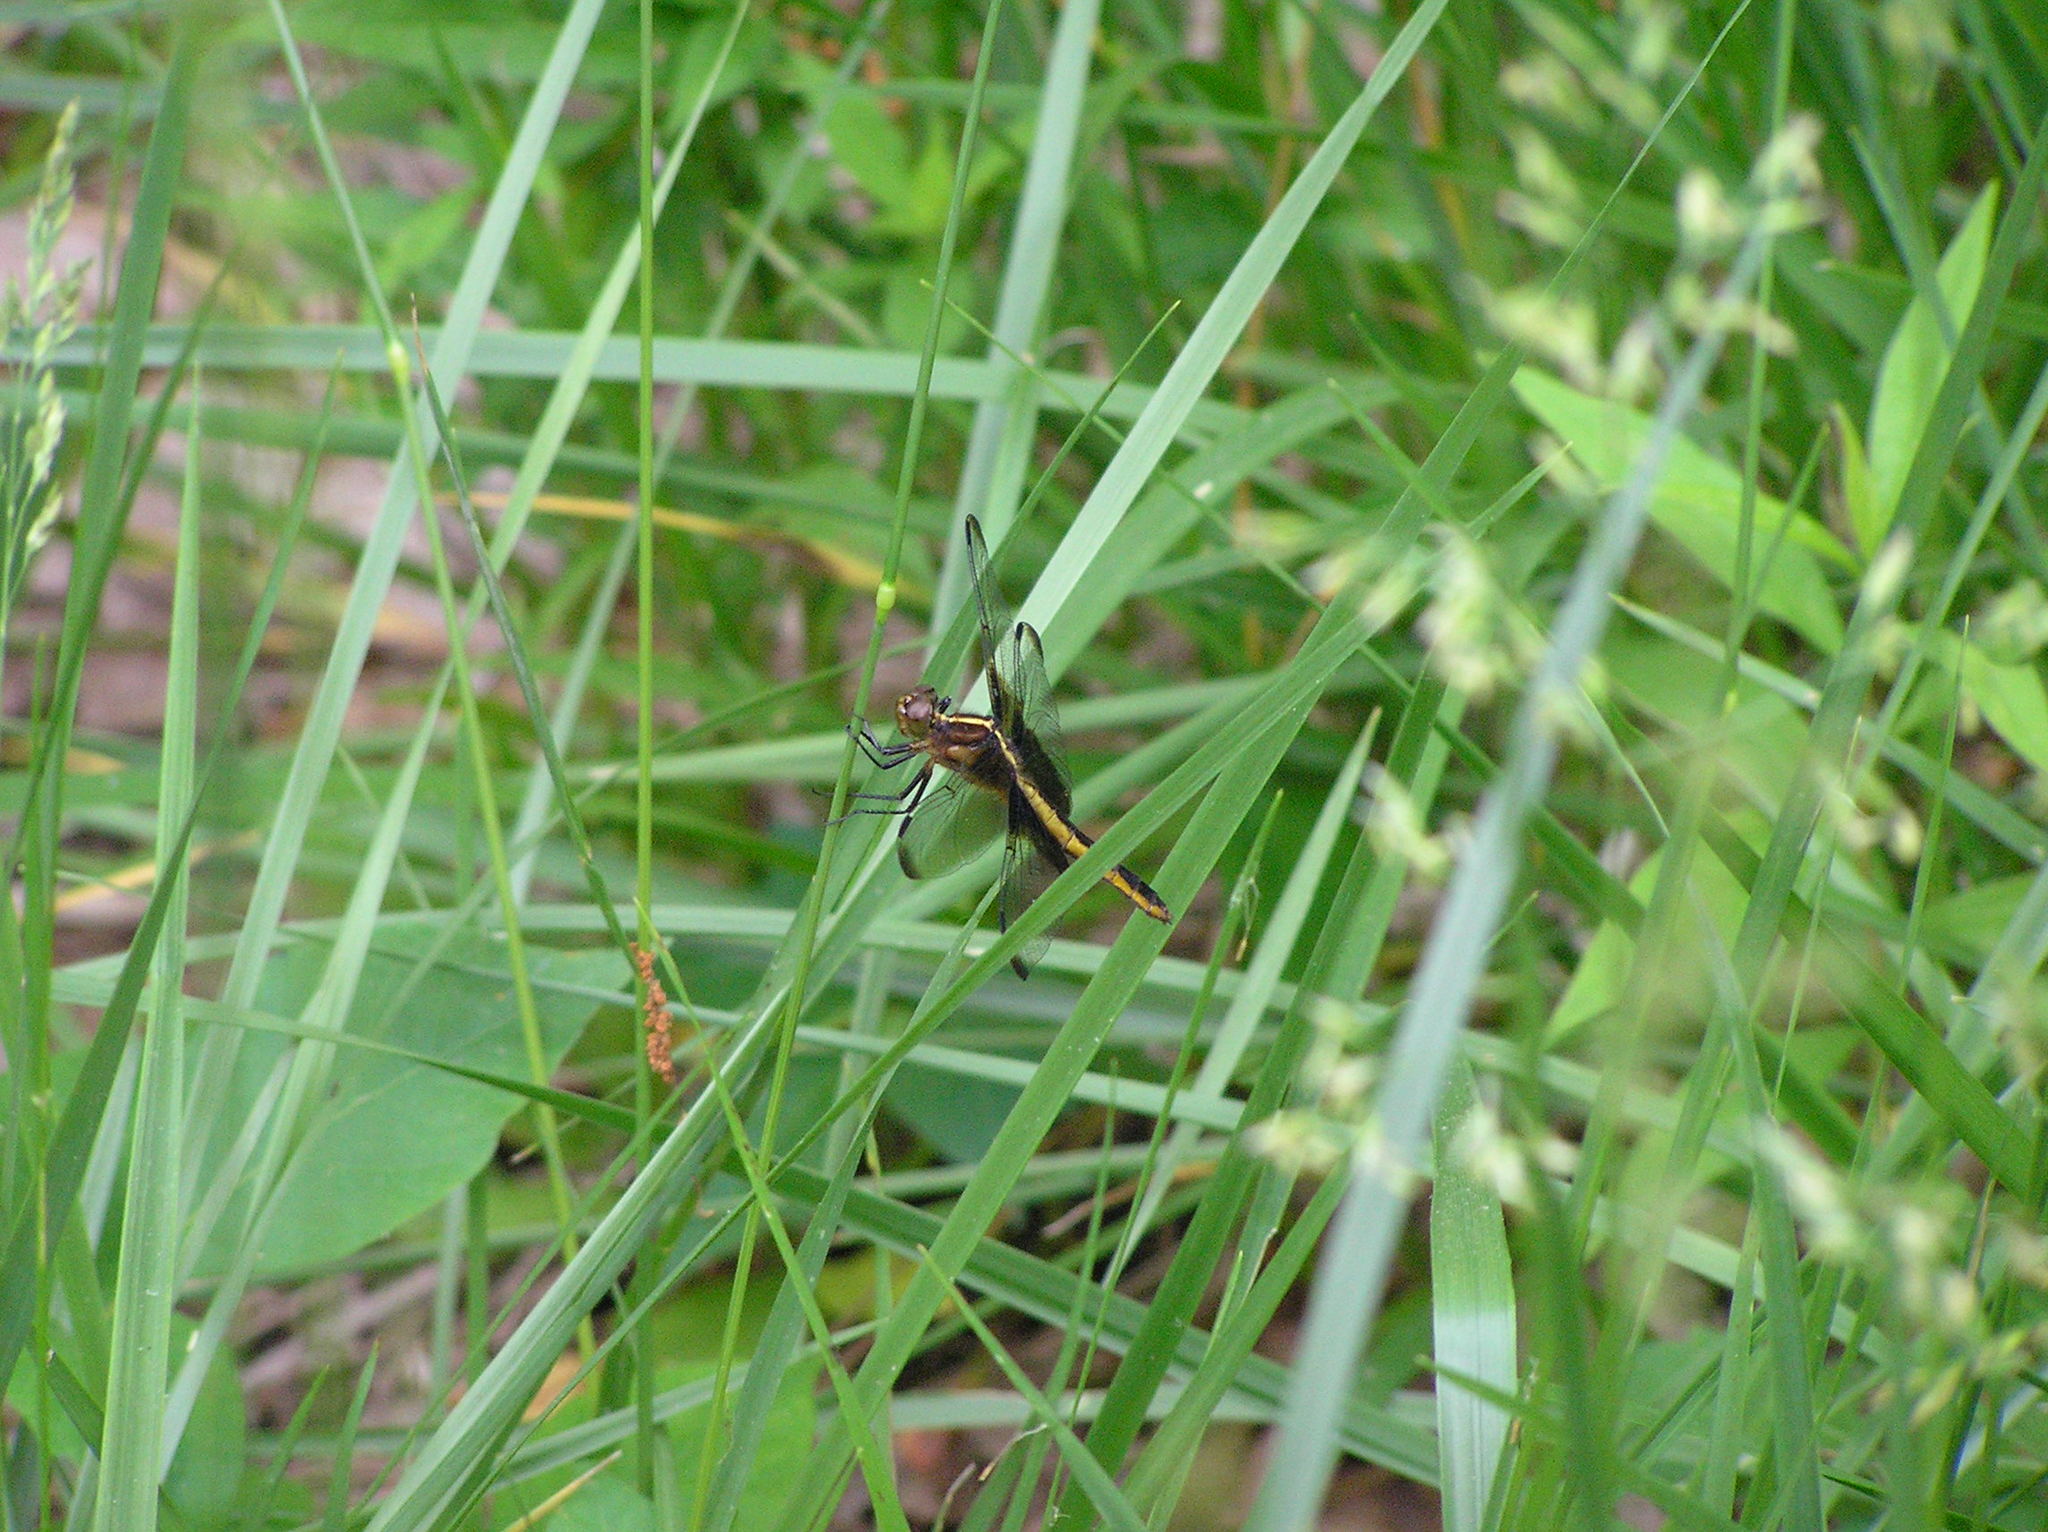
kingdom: Animalia
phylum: Arthropoda
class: Insecta
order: Odonata
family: Libellulidae
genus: Libellula
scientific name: Libellula luctuosa
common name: Widow skimmer
